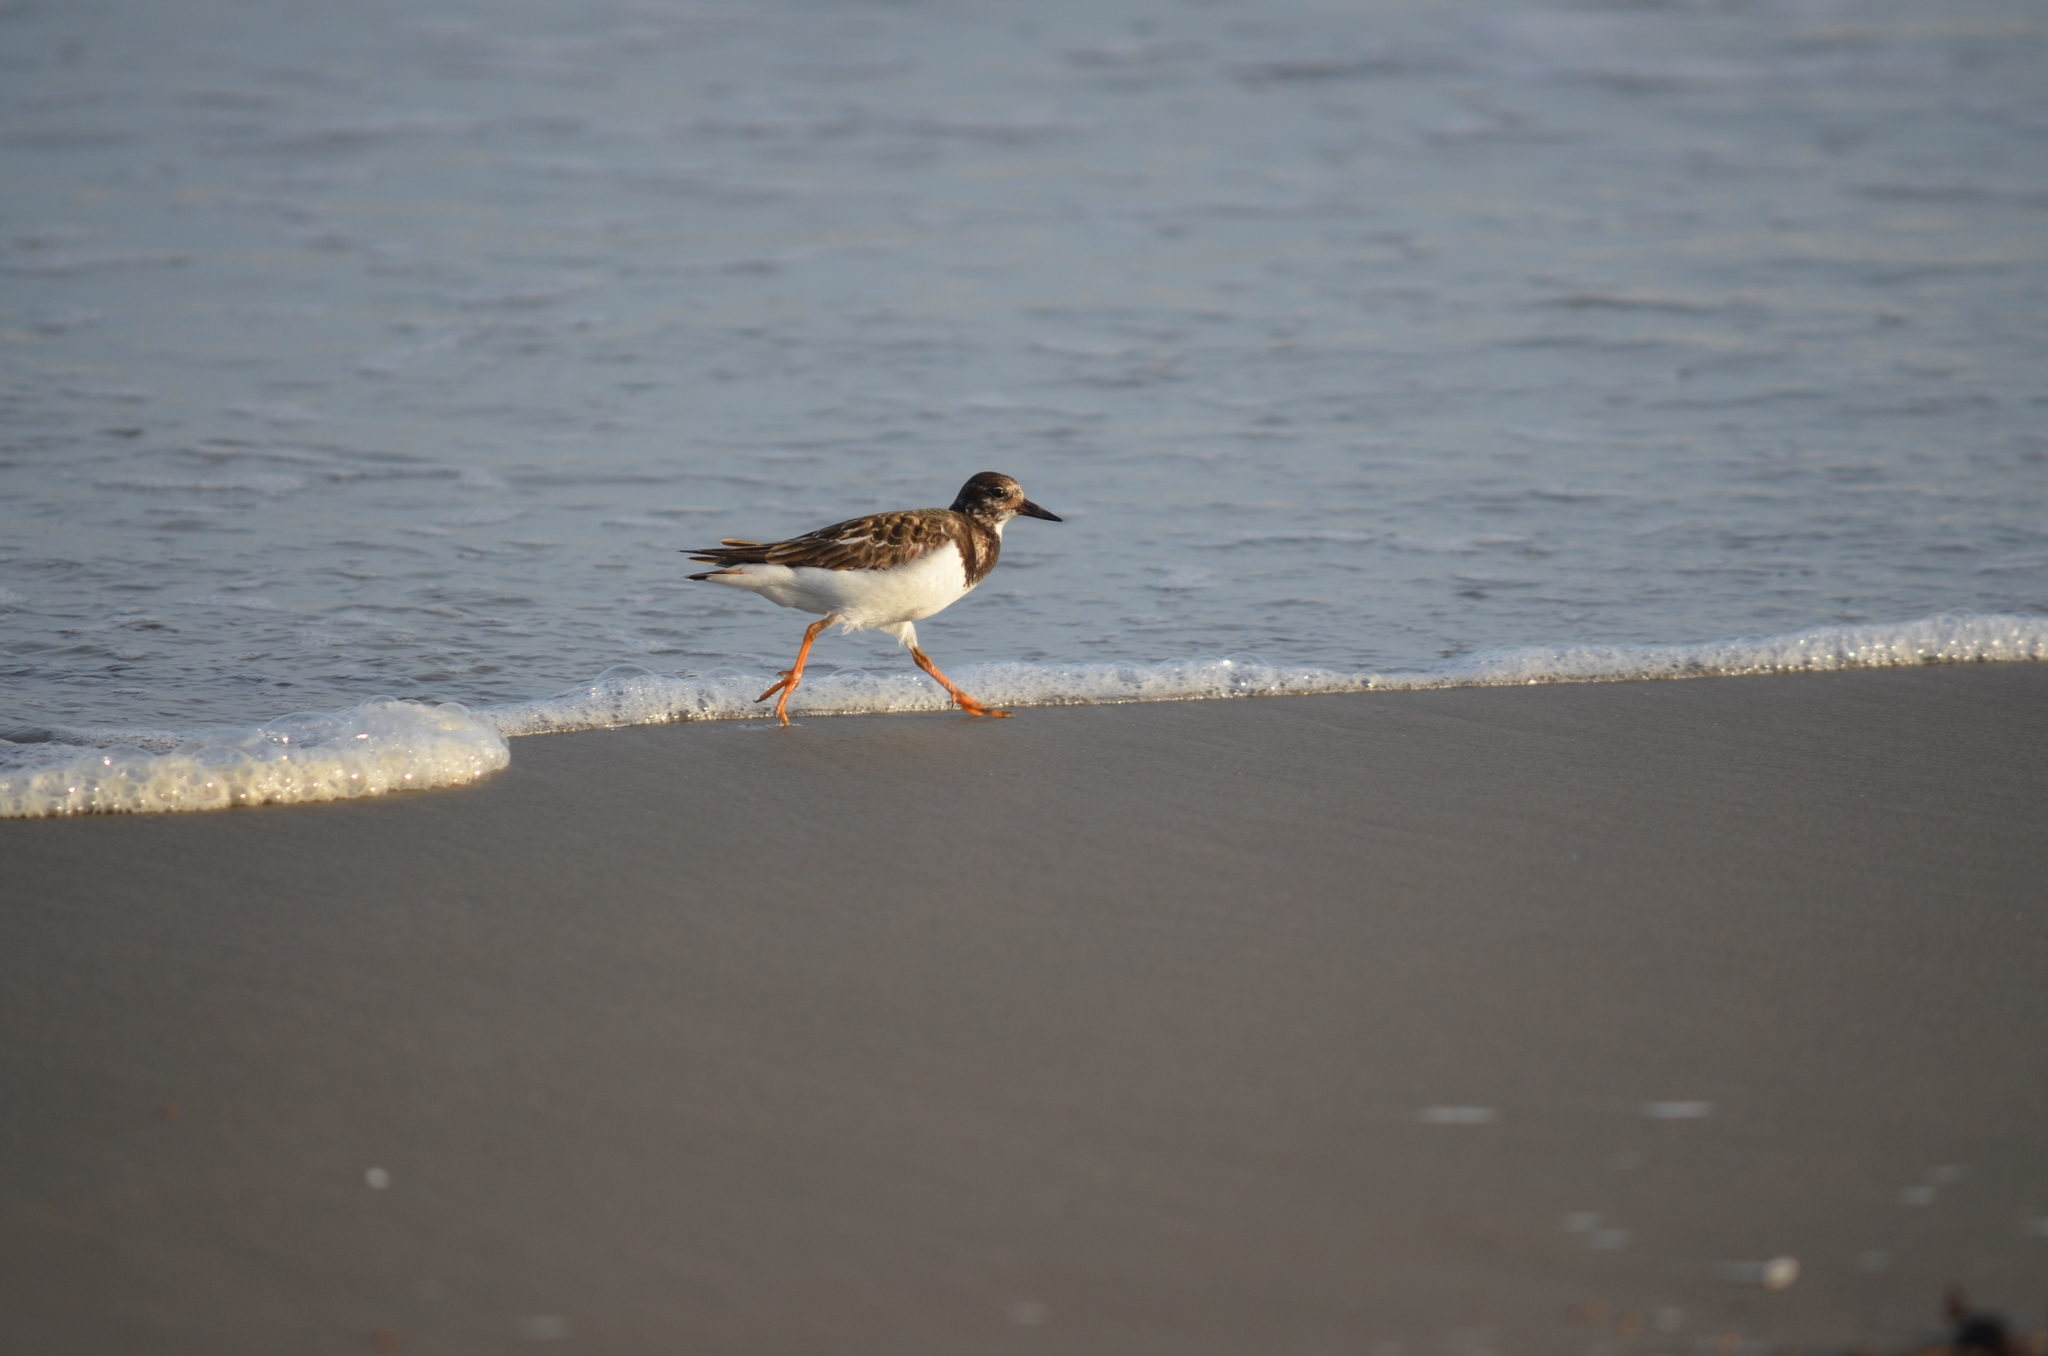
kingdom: Animalia
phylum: Chordata
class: Aves
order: Charadriiformes
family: Scolopacidae
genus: Arenaria
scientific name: Arenaria interpres
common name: Ruddy turnstone
